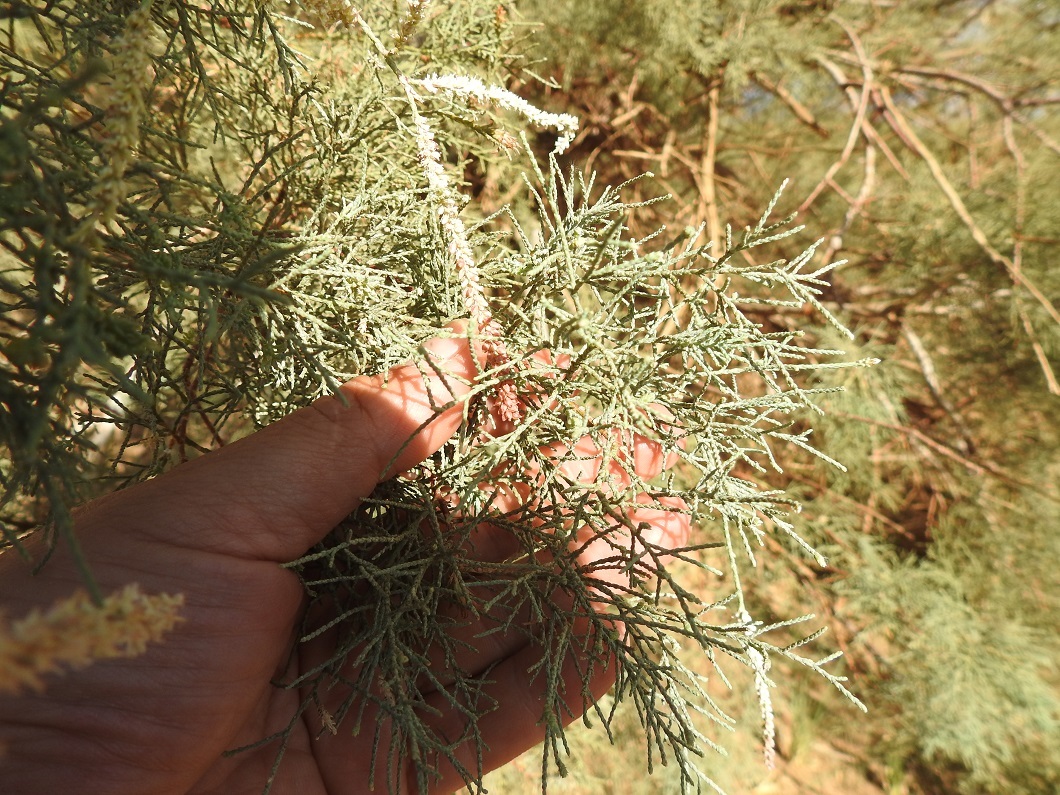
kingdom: Plantae
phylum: Tracheophyta
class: Magnoliopsida
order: Caryophyllales
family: Tamaricaceae
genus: Tamarix
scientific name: Tamarix gallica
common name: Tamarisk
